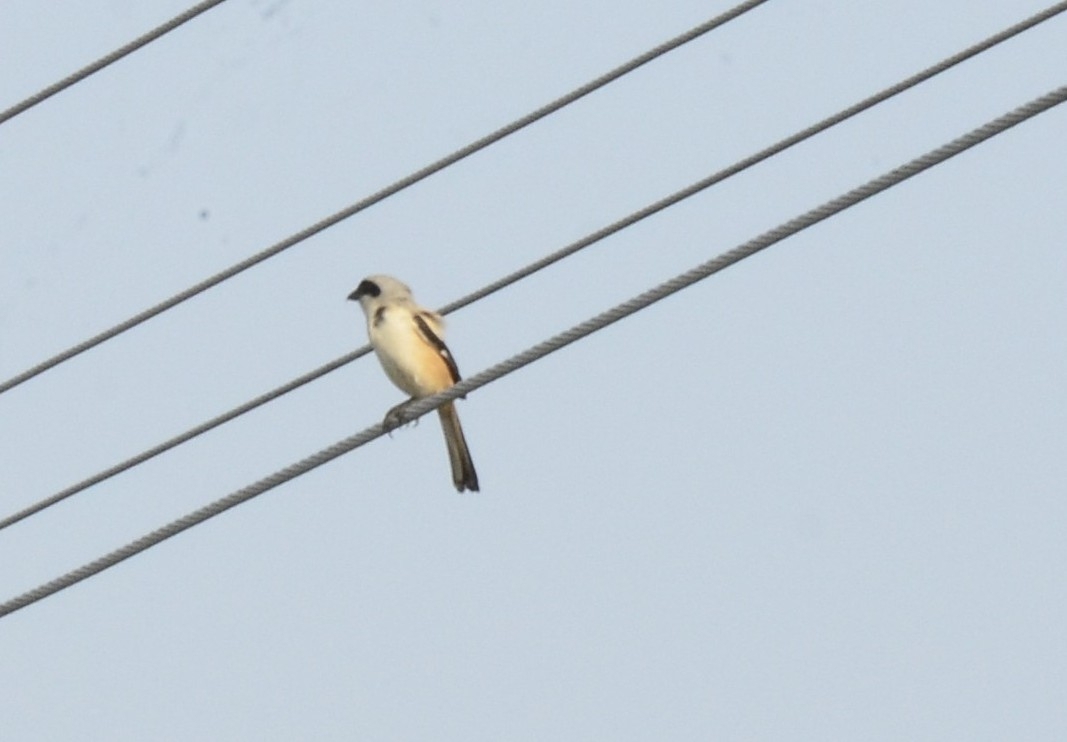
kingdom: Animalia
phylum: Chordata
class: Aves
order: Passeriformes
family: Laniidae
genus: Lanius
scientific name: Lanius schach
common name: Long-tailed shrike
